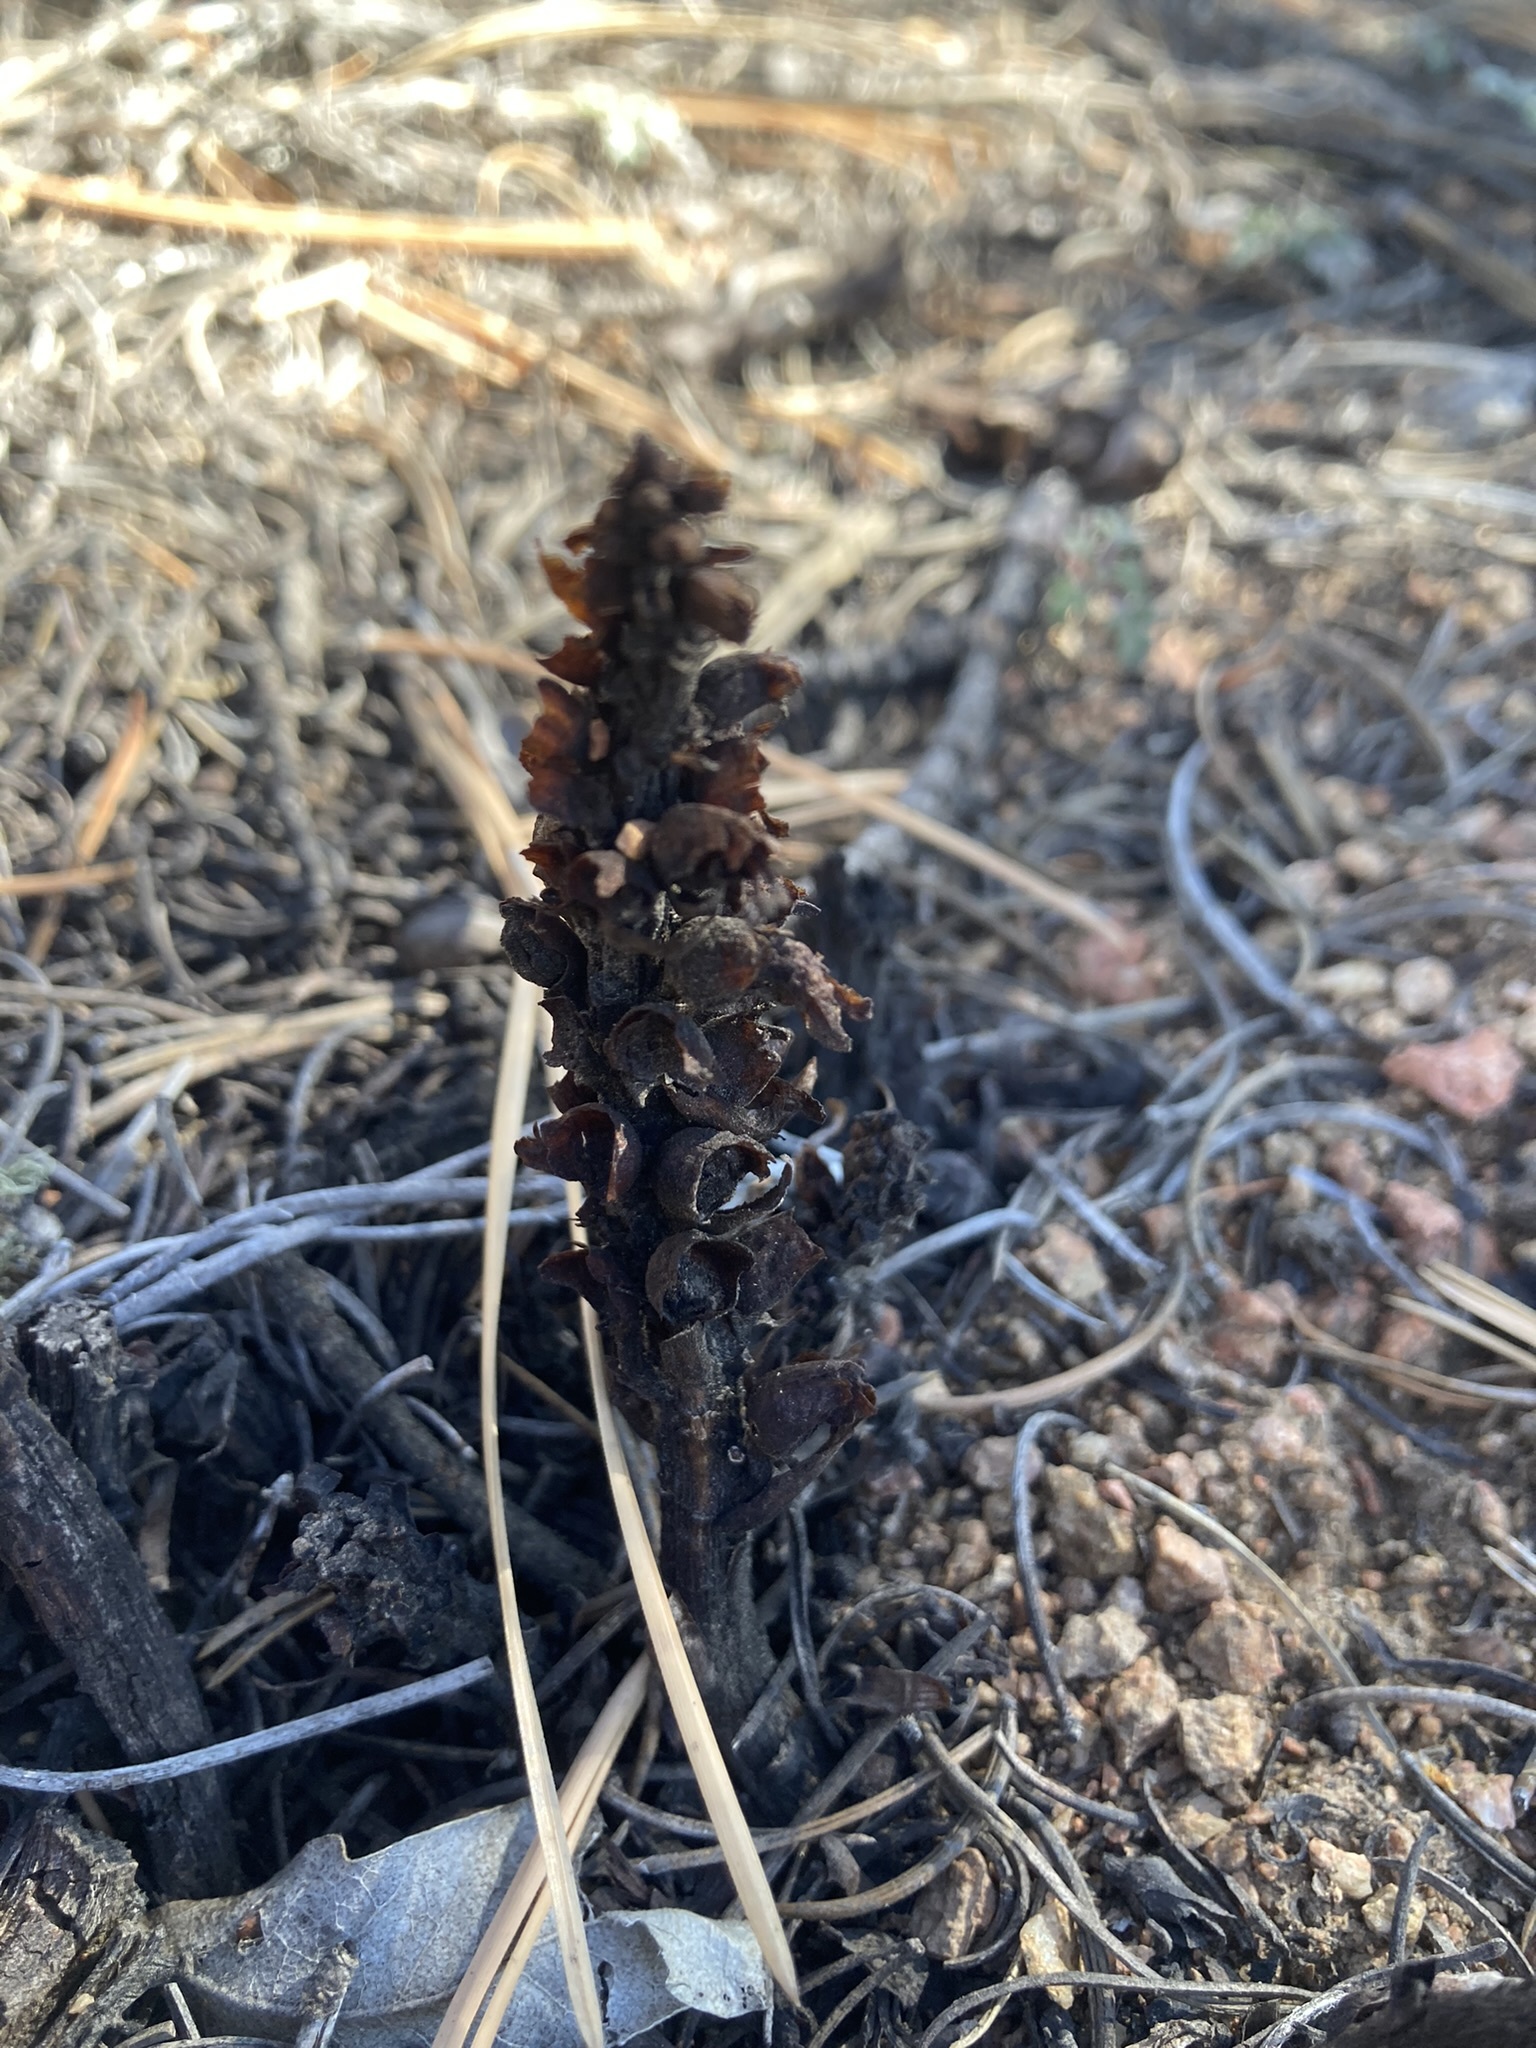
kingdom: Plantae
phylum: Tracheophyta
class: Magnoliopsida
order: Lamiales
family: Orobanchaceae
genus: Conopholis
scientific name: Conopholis alpina
